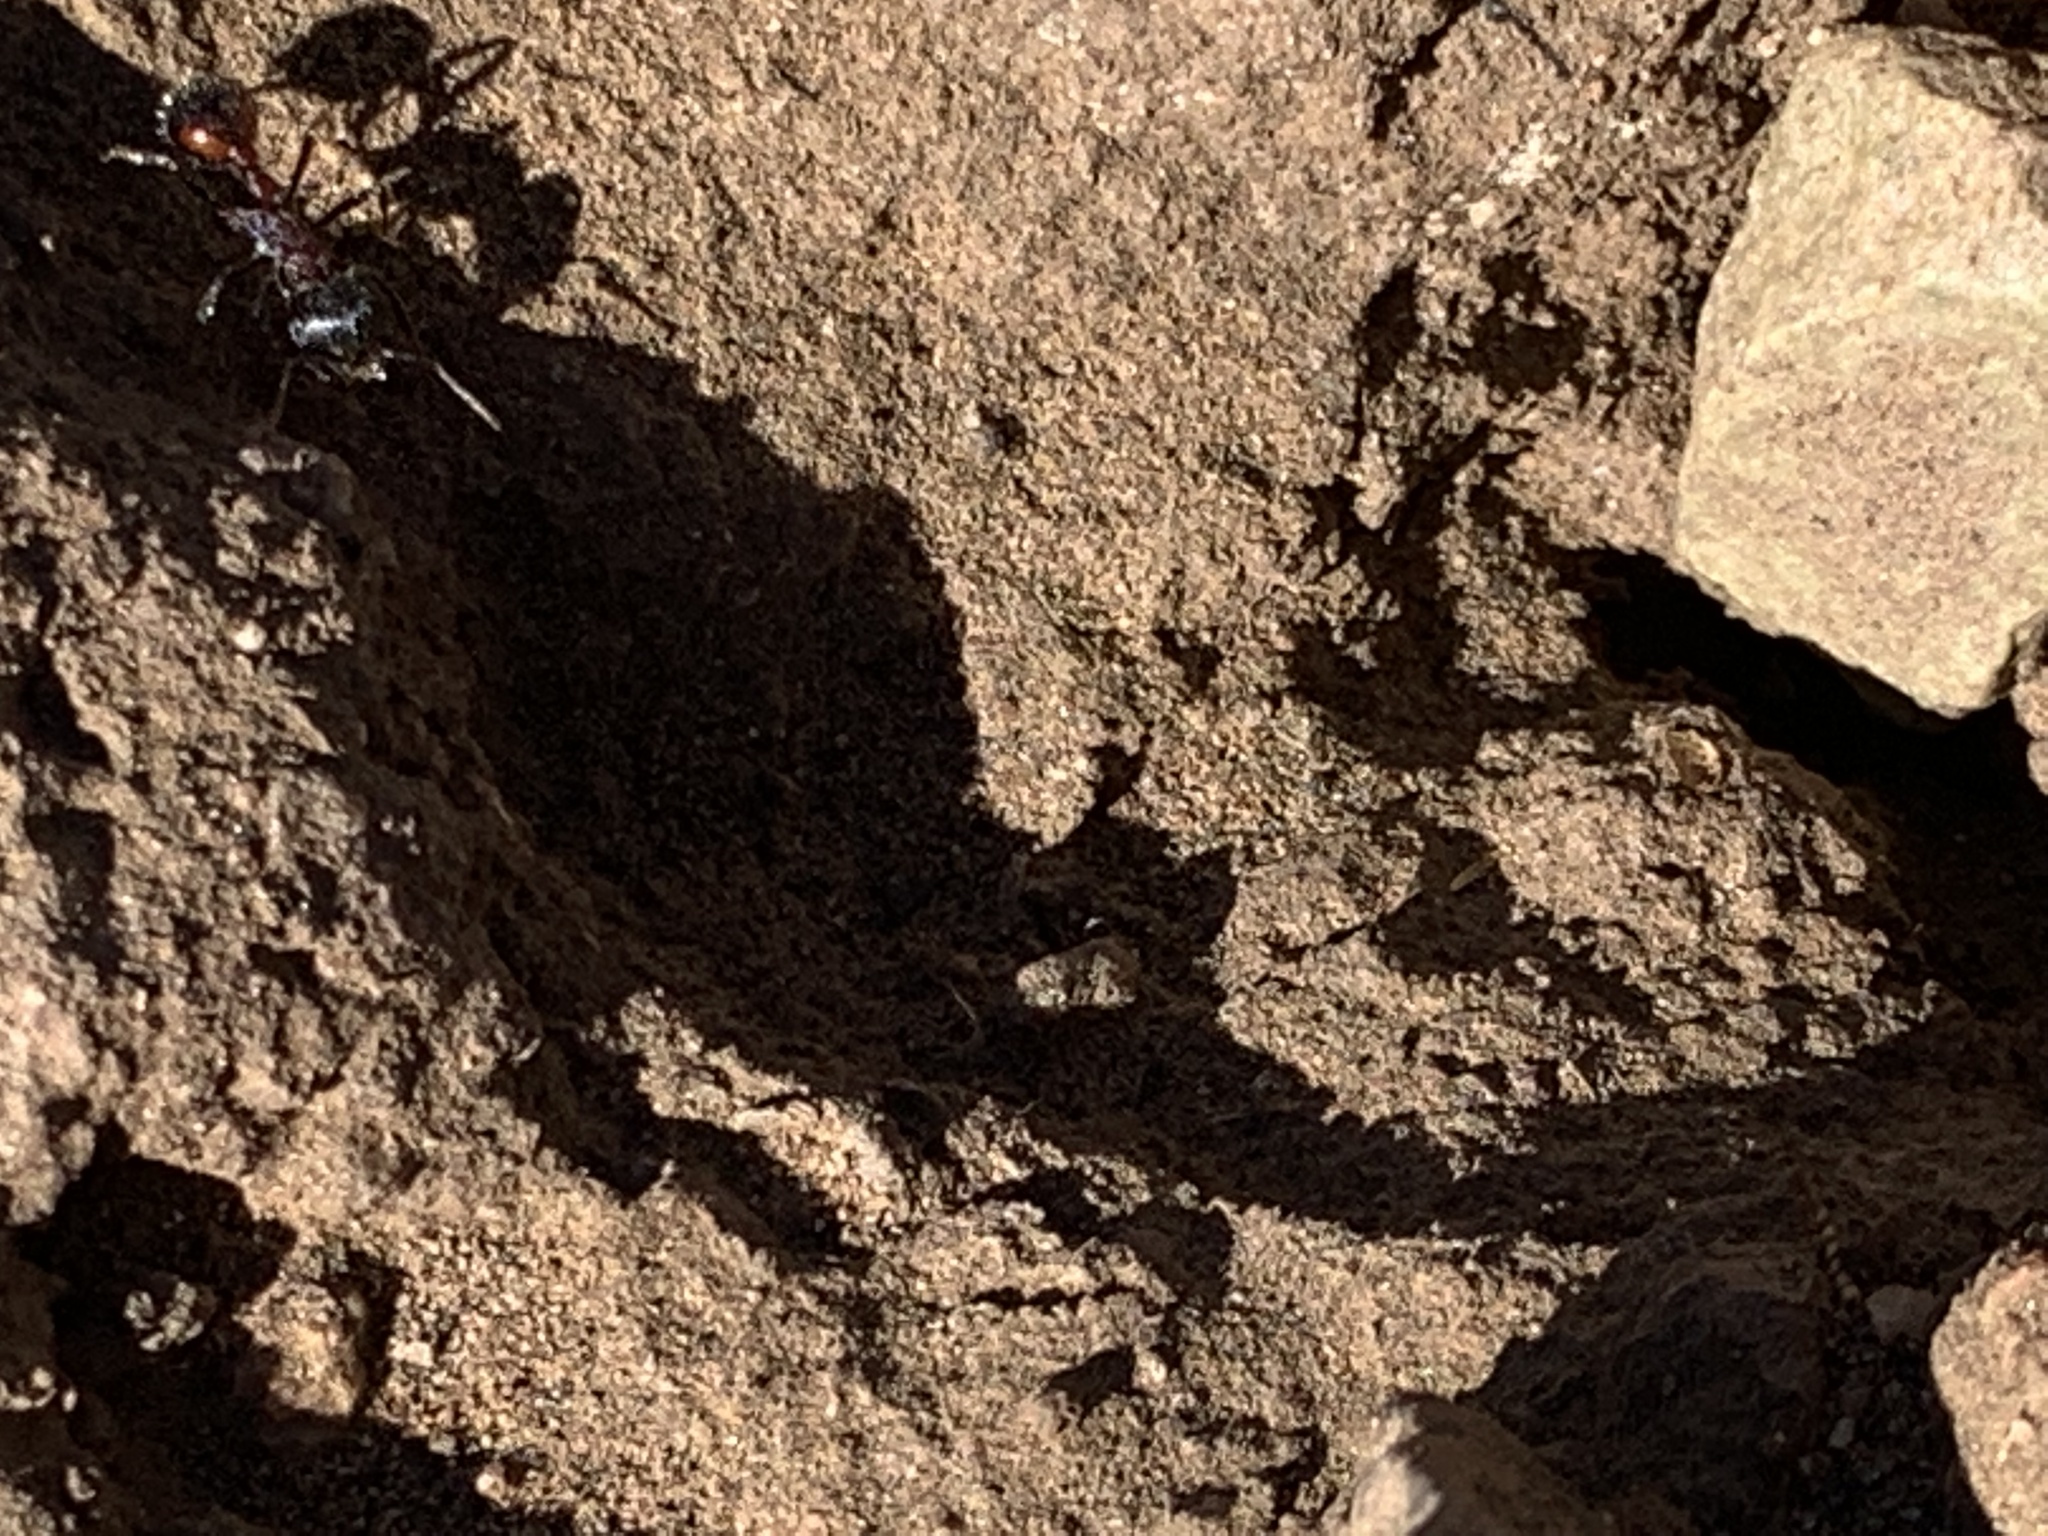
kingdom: Animalia
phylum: Arthropoda
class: Insecta
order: Hymenoptera
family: Formicidae
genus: Pogonomyrmex
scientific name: Pogonomyrmex rugosus
